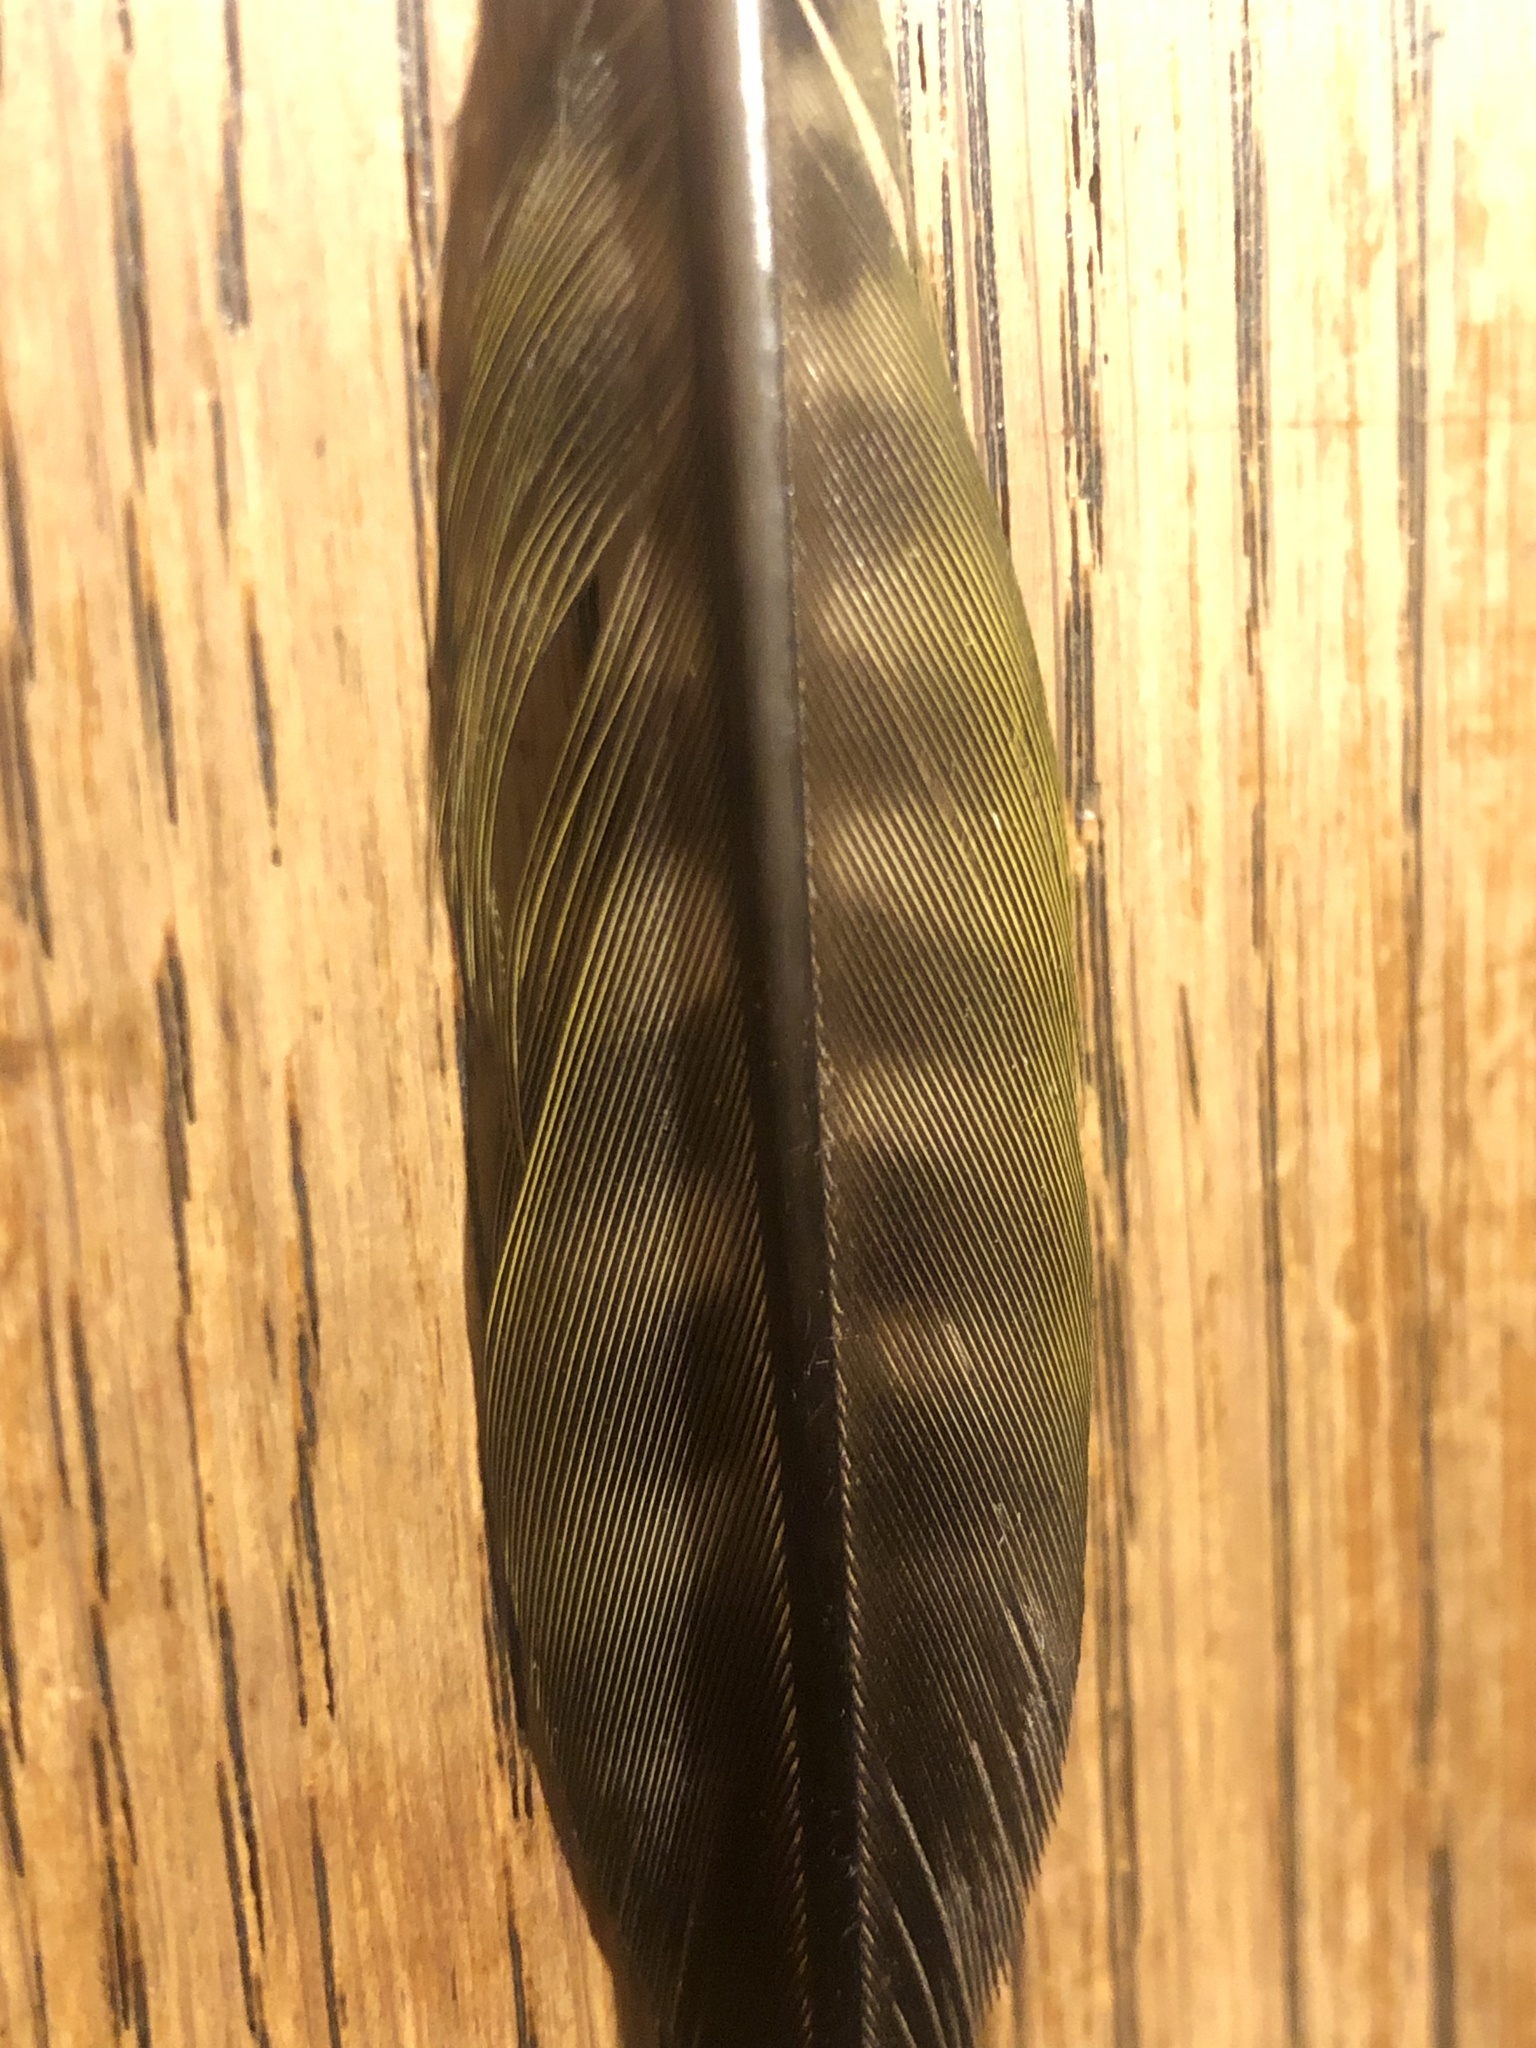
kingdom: Animalia
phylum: Chordata
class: Aves
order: Piciformes
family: Picidae
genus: Picus
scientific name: Picus viridis
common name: European green woodpecker
